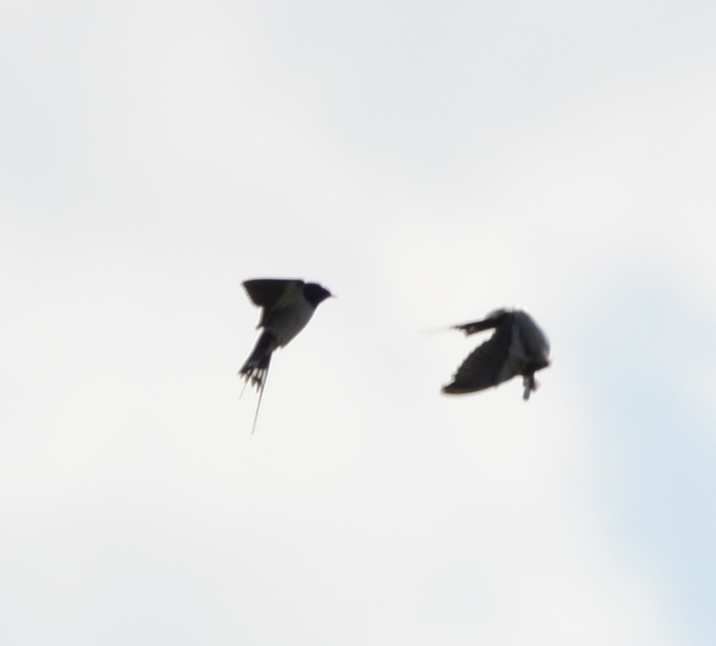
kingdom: Animalia
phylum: Chordata
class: Aves
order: Passeriformes
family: Hirundinidae
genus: Hirundo
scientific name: Hirundo rustica
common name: Barn swallow
